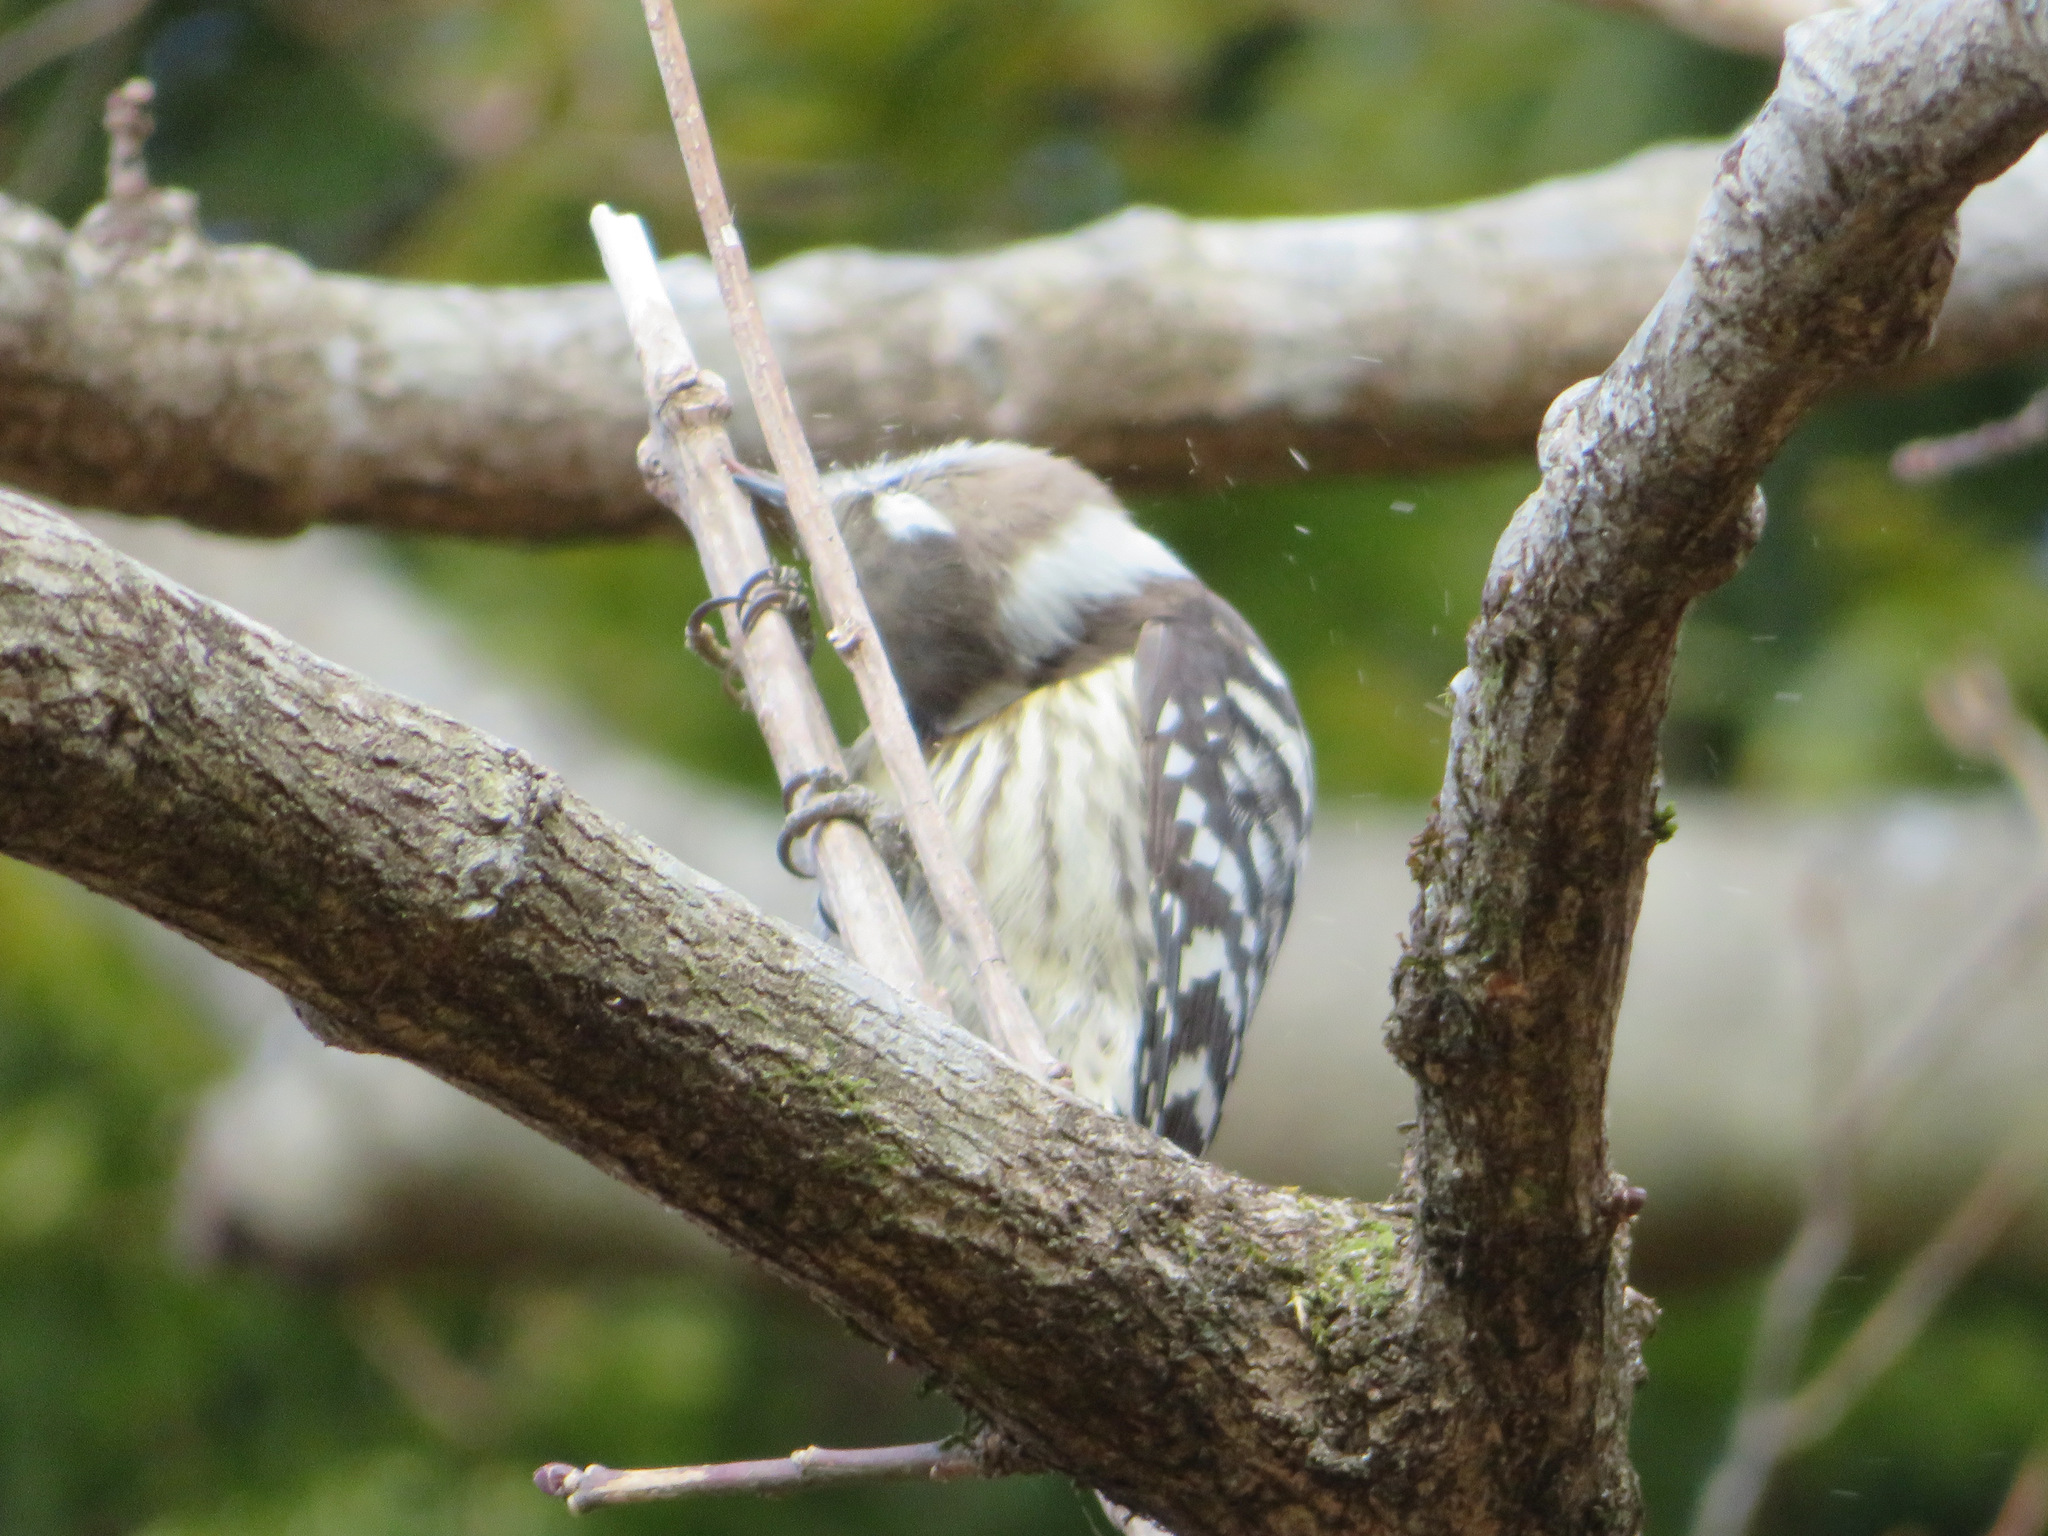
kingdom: Animalia
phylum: Chordata
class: Aves
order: Piciformes
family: Picidae
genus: Yungipicus
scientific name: Yungipicus kizuki
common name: Japanese pygmy woodpecker
